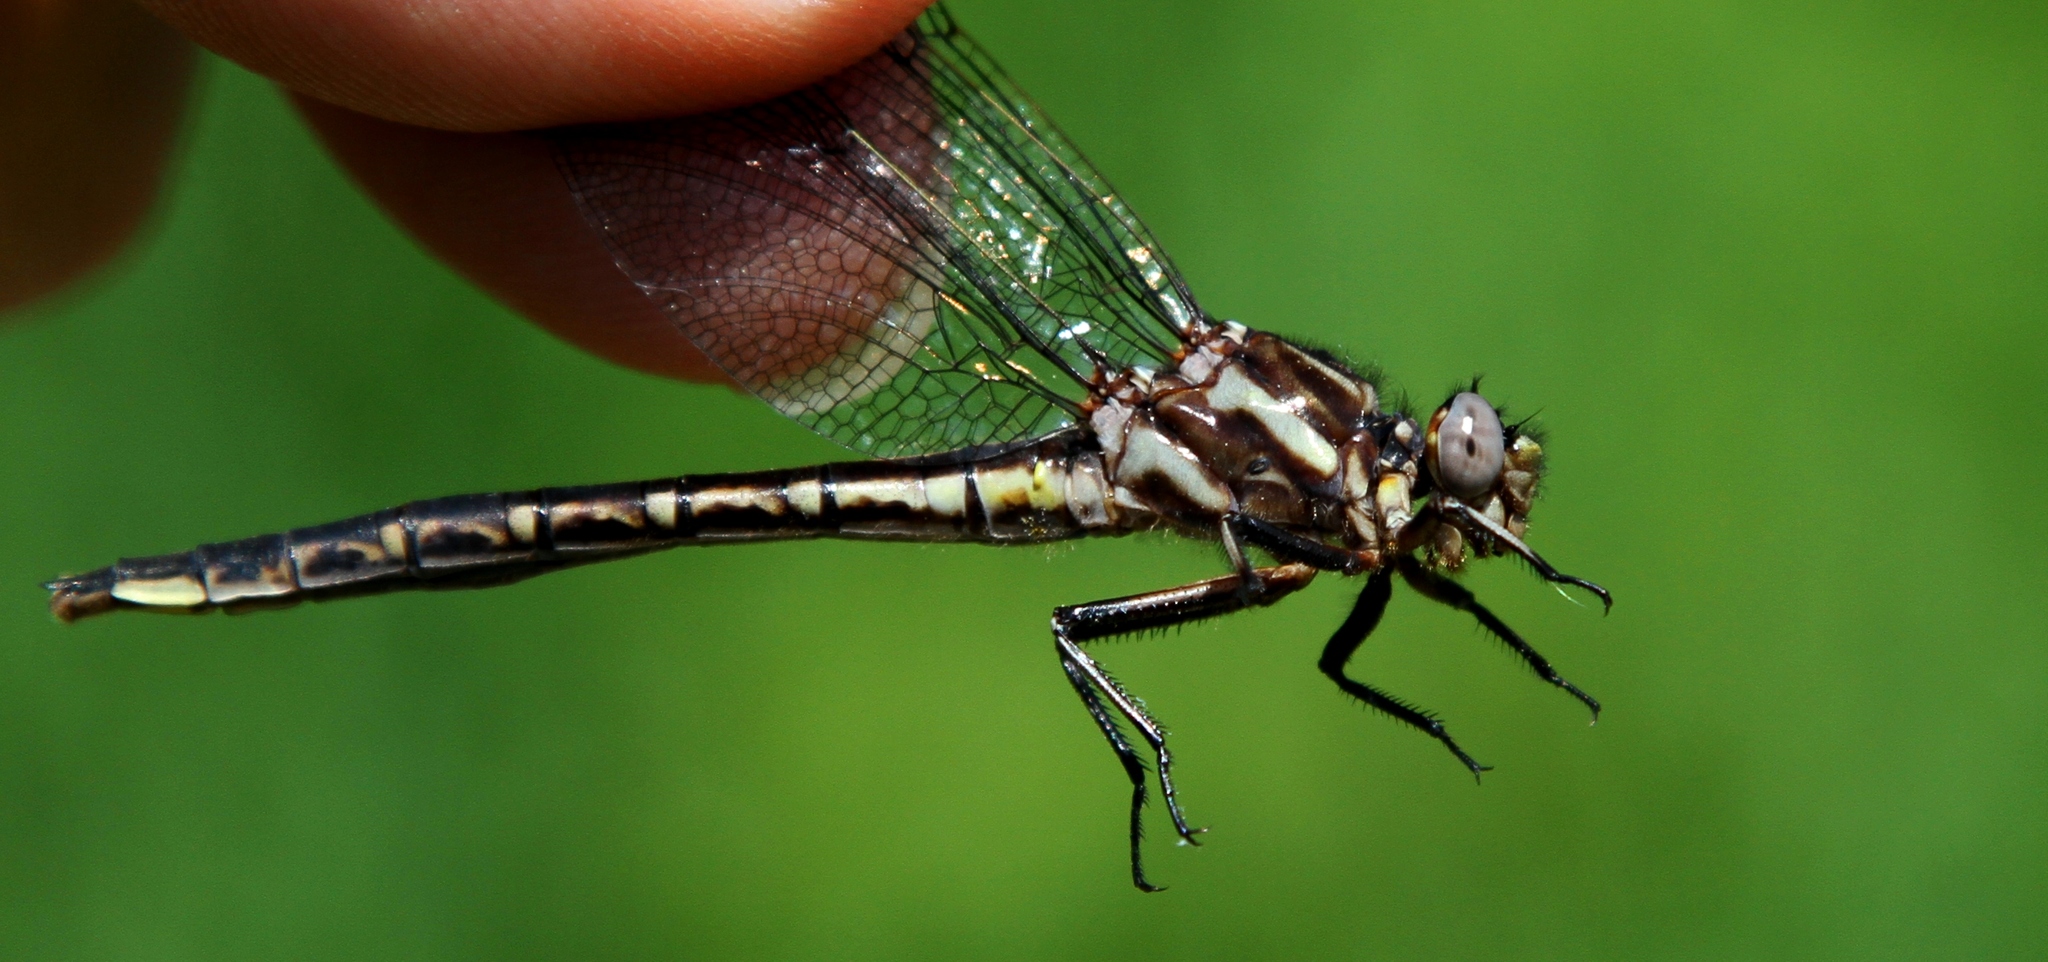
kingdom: Animalia
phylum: Arthropoda
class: Insecta
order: Odonata
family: Gomphidae
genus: Phanogomphus
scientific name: Phanogomphus spicatus
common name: Dusky clubtail
